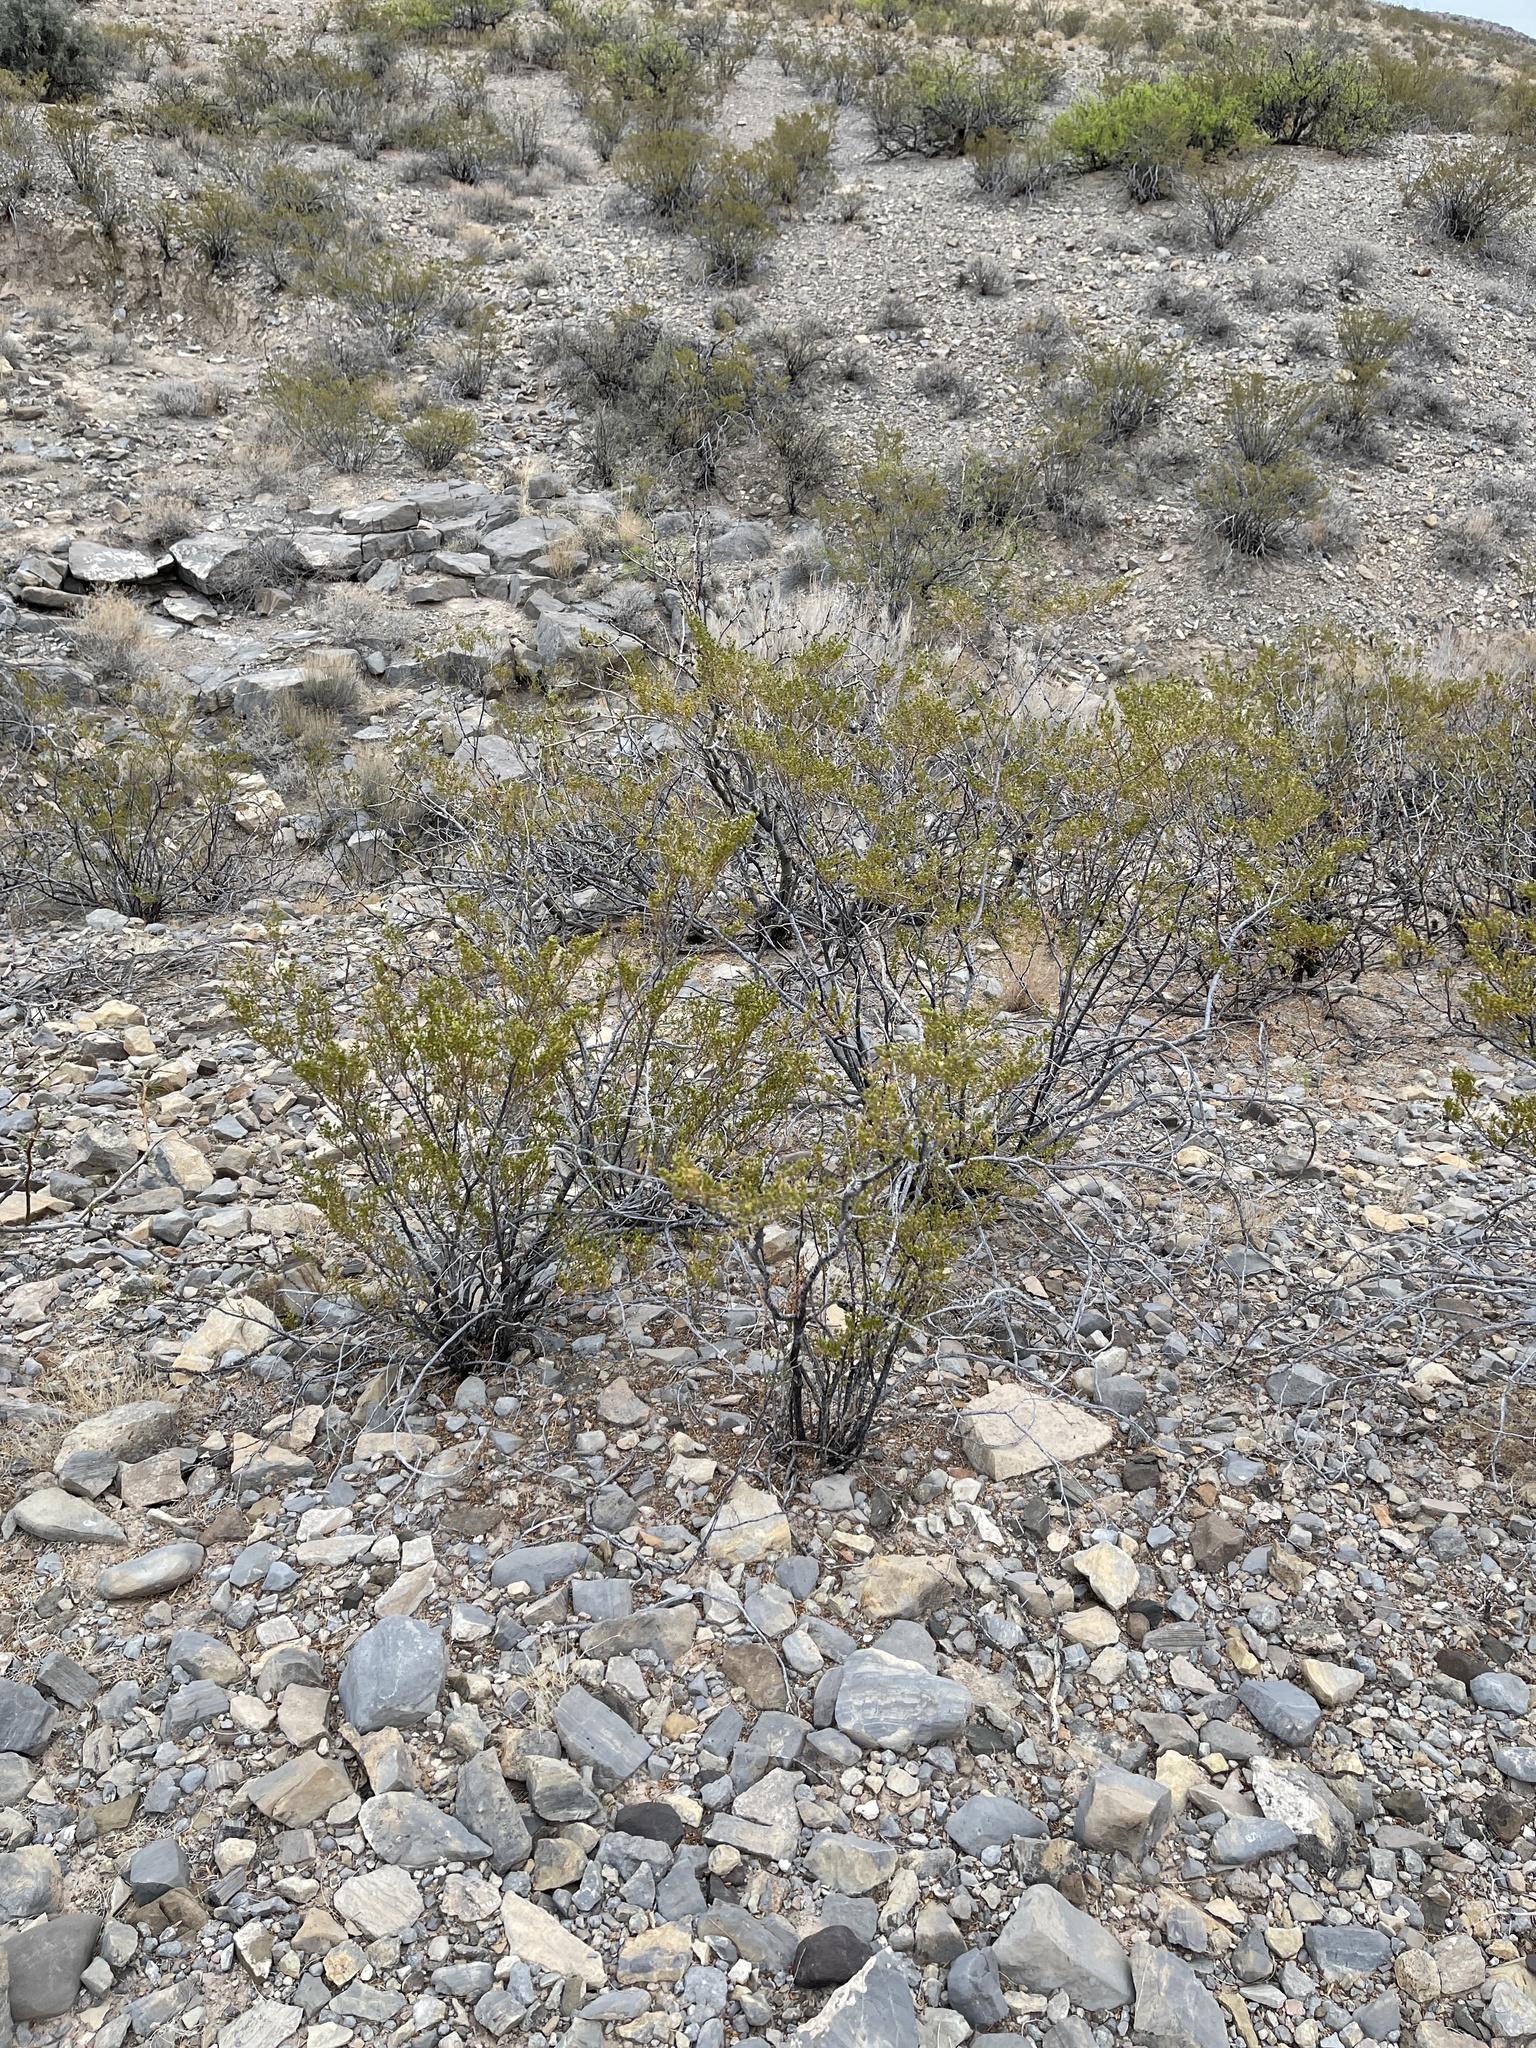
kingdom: Plantae
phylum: Tracheophyta
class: Magnoliopsida
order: Zygophyllales
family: Zygophyllaceae
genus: Larrea
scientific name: Larrea tridentata
